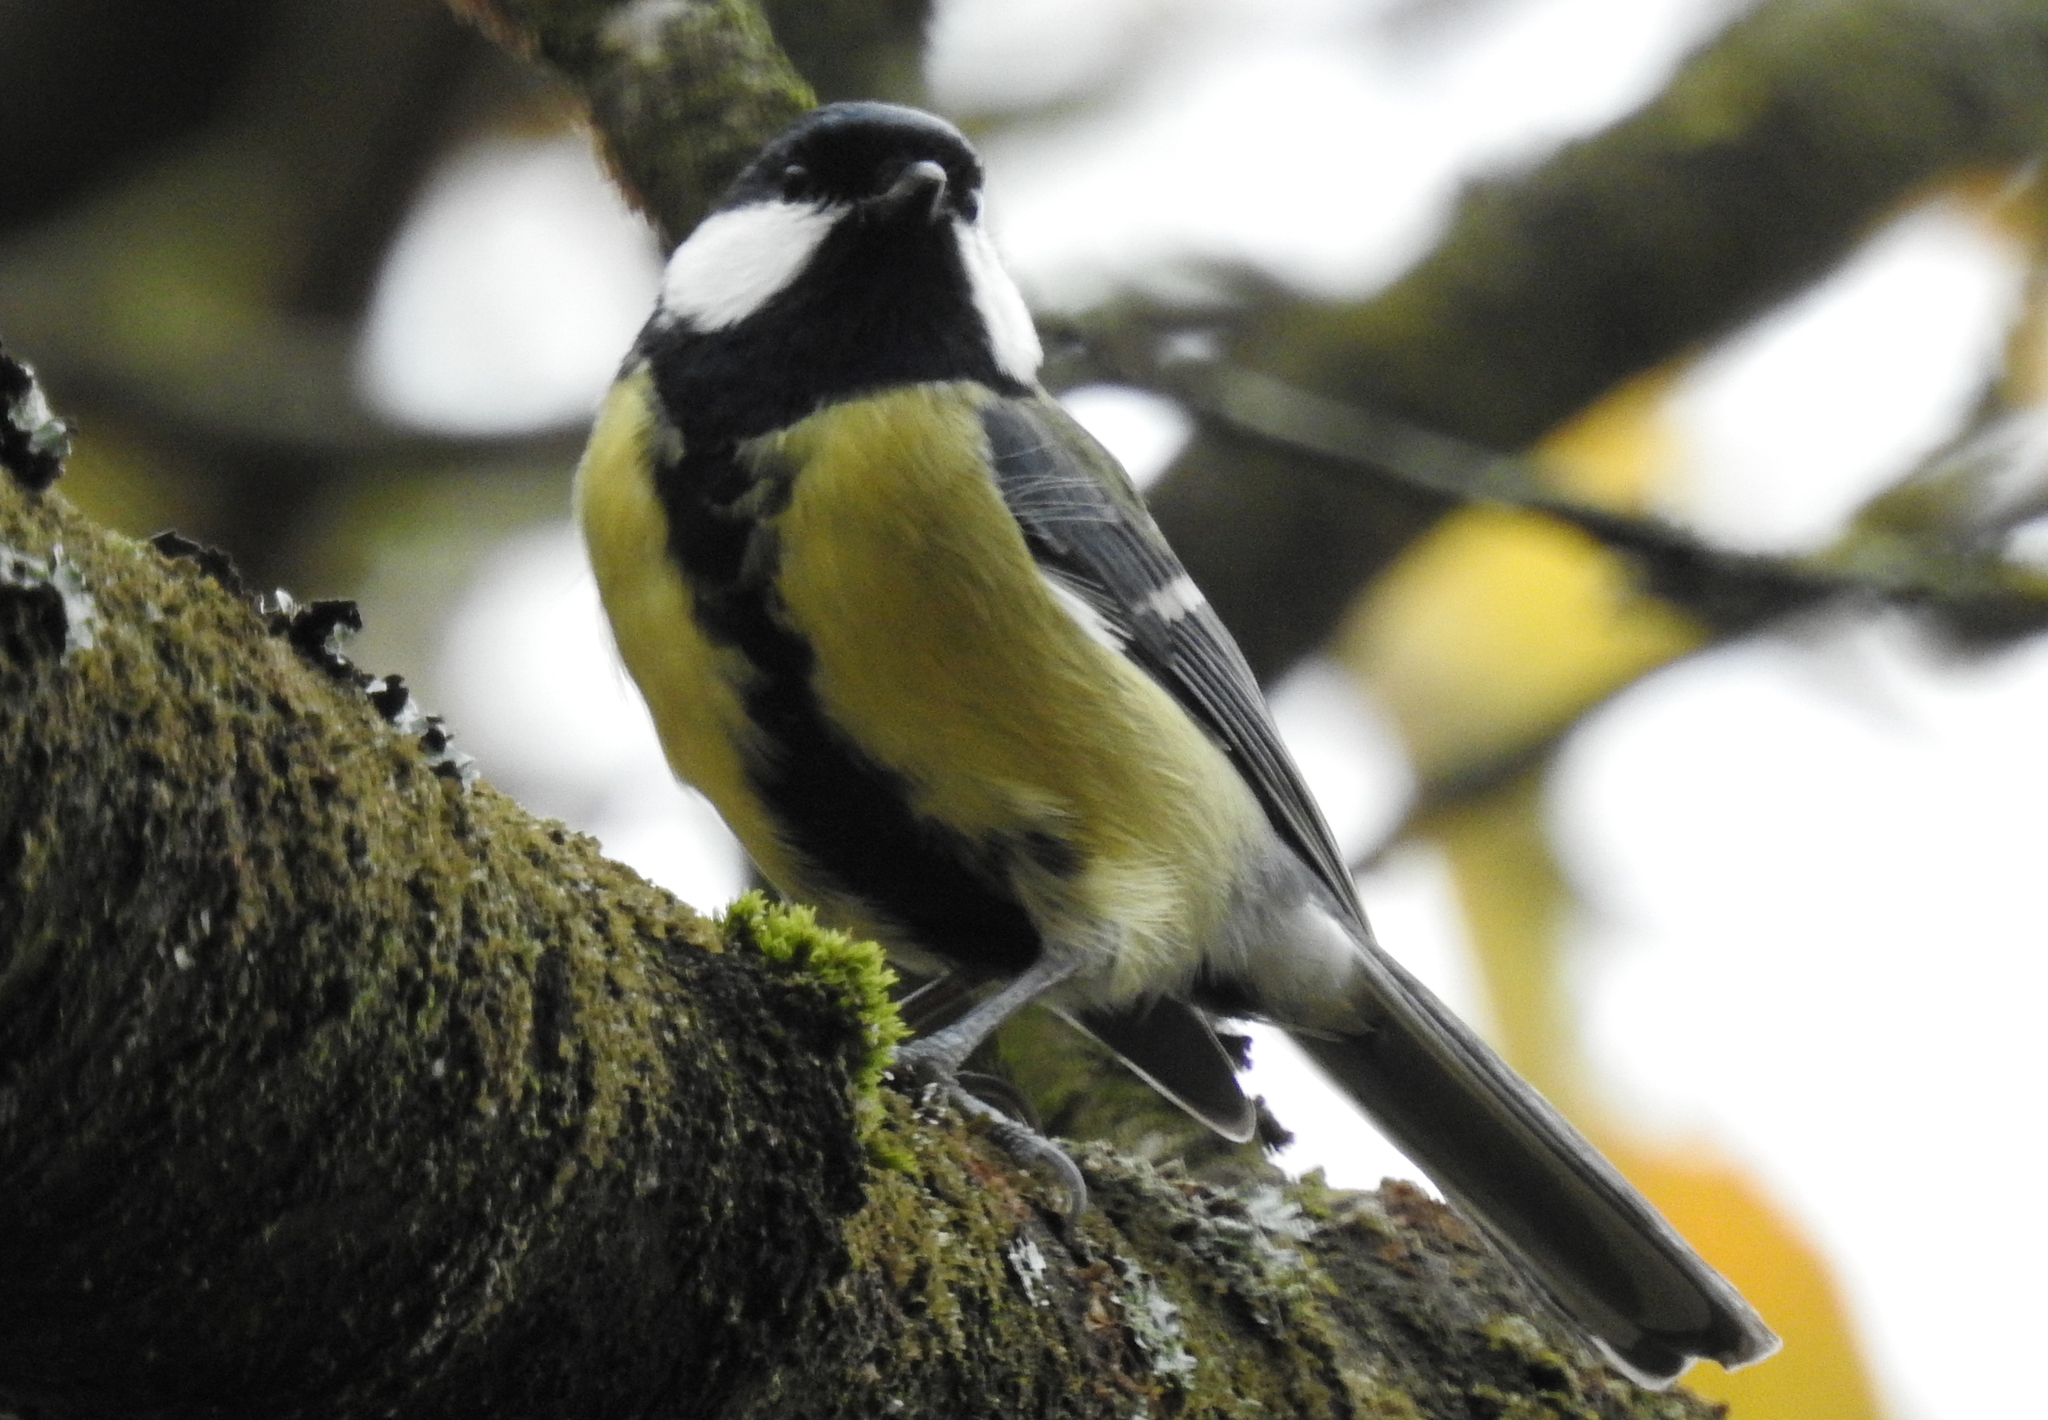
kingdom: Animalia
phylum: Chordata
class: Aves
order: Passeriformes
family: Paridae
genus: Parus
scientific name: Parus major
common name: Great tit
